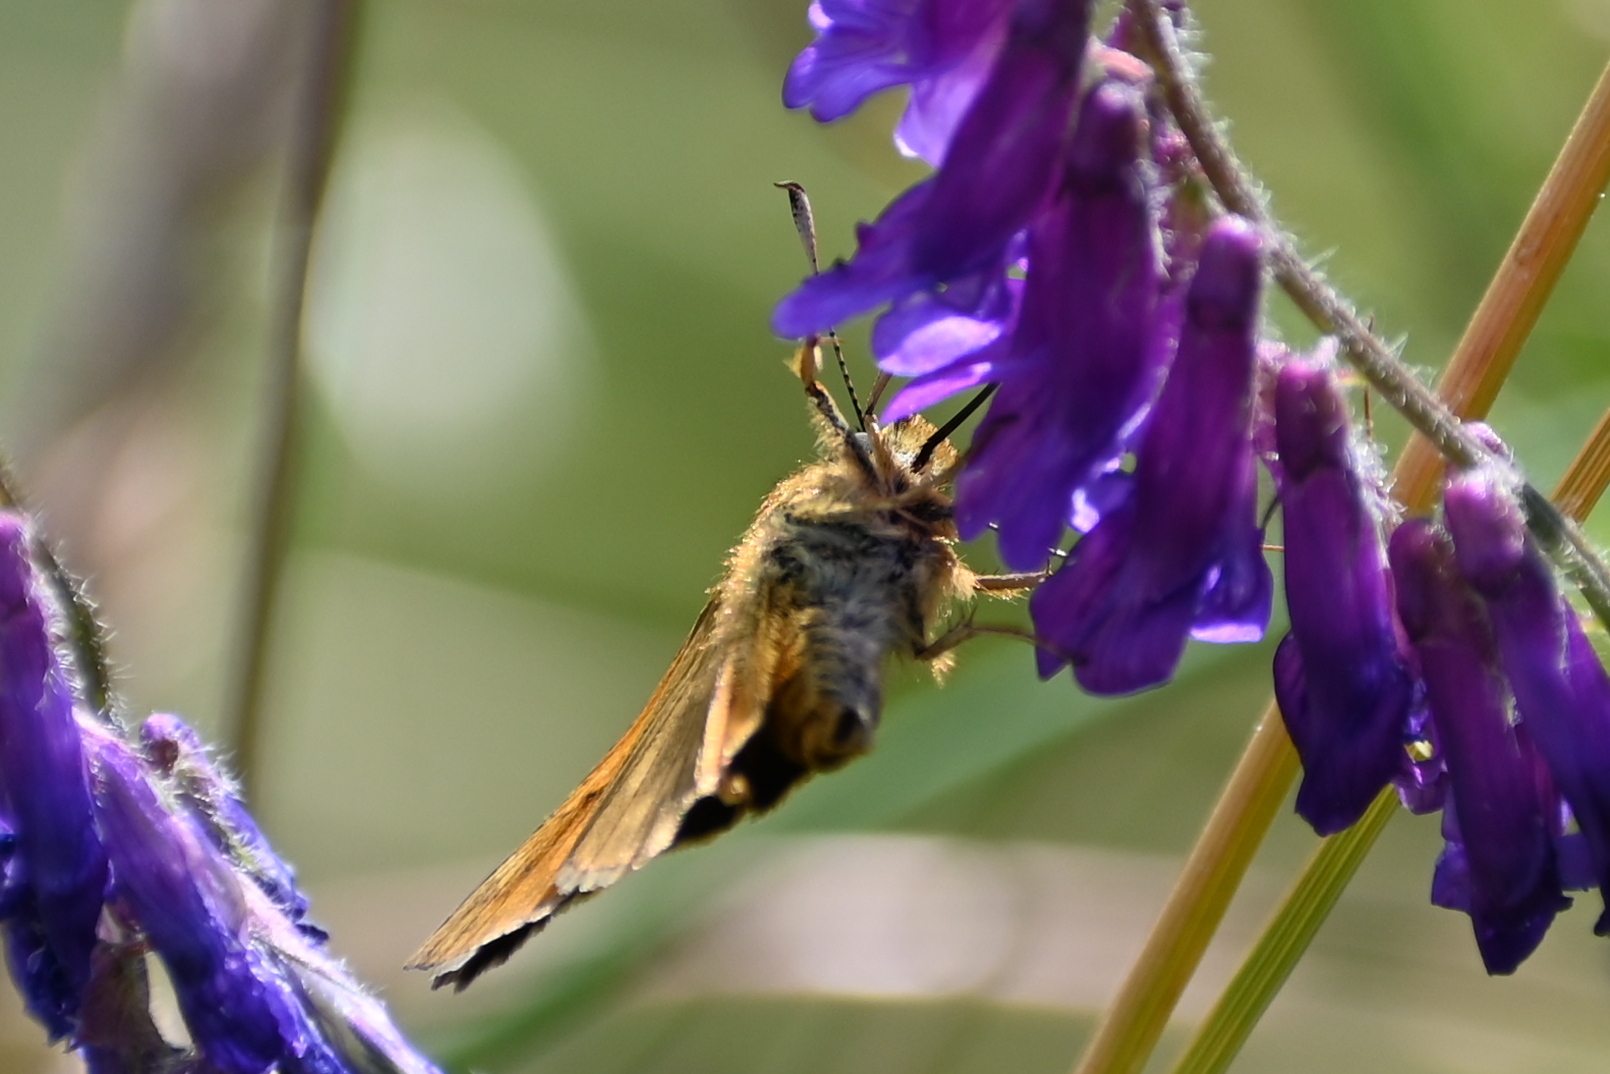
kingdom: Animalia
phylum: Arthropoda
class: Insecta
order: Lepidoptera
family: Hesperiidae
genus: Ochlodes
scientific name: Ochlodes venata
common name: Large skipper
